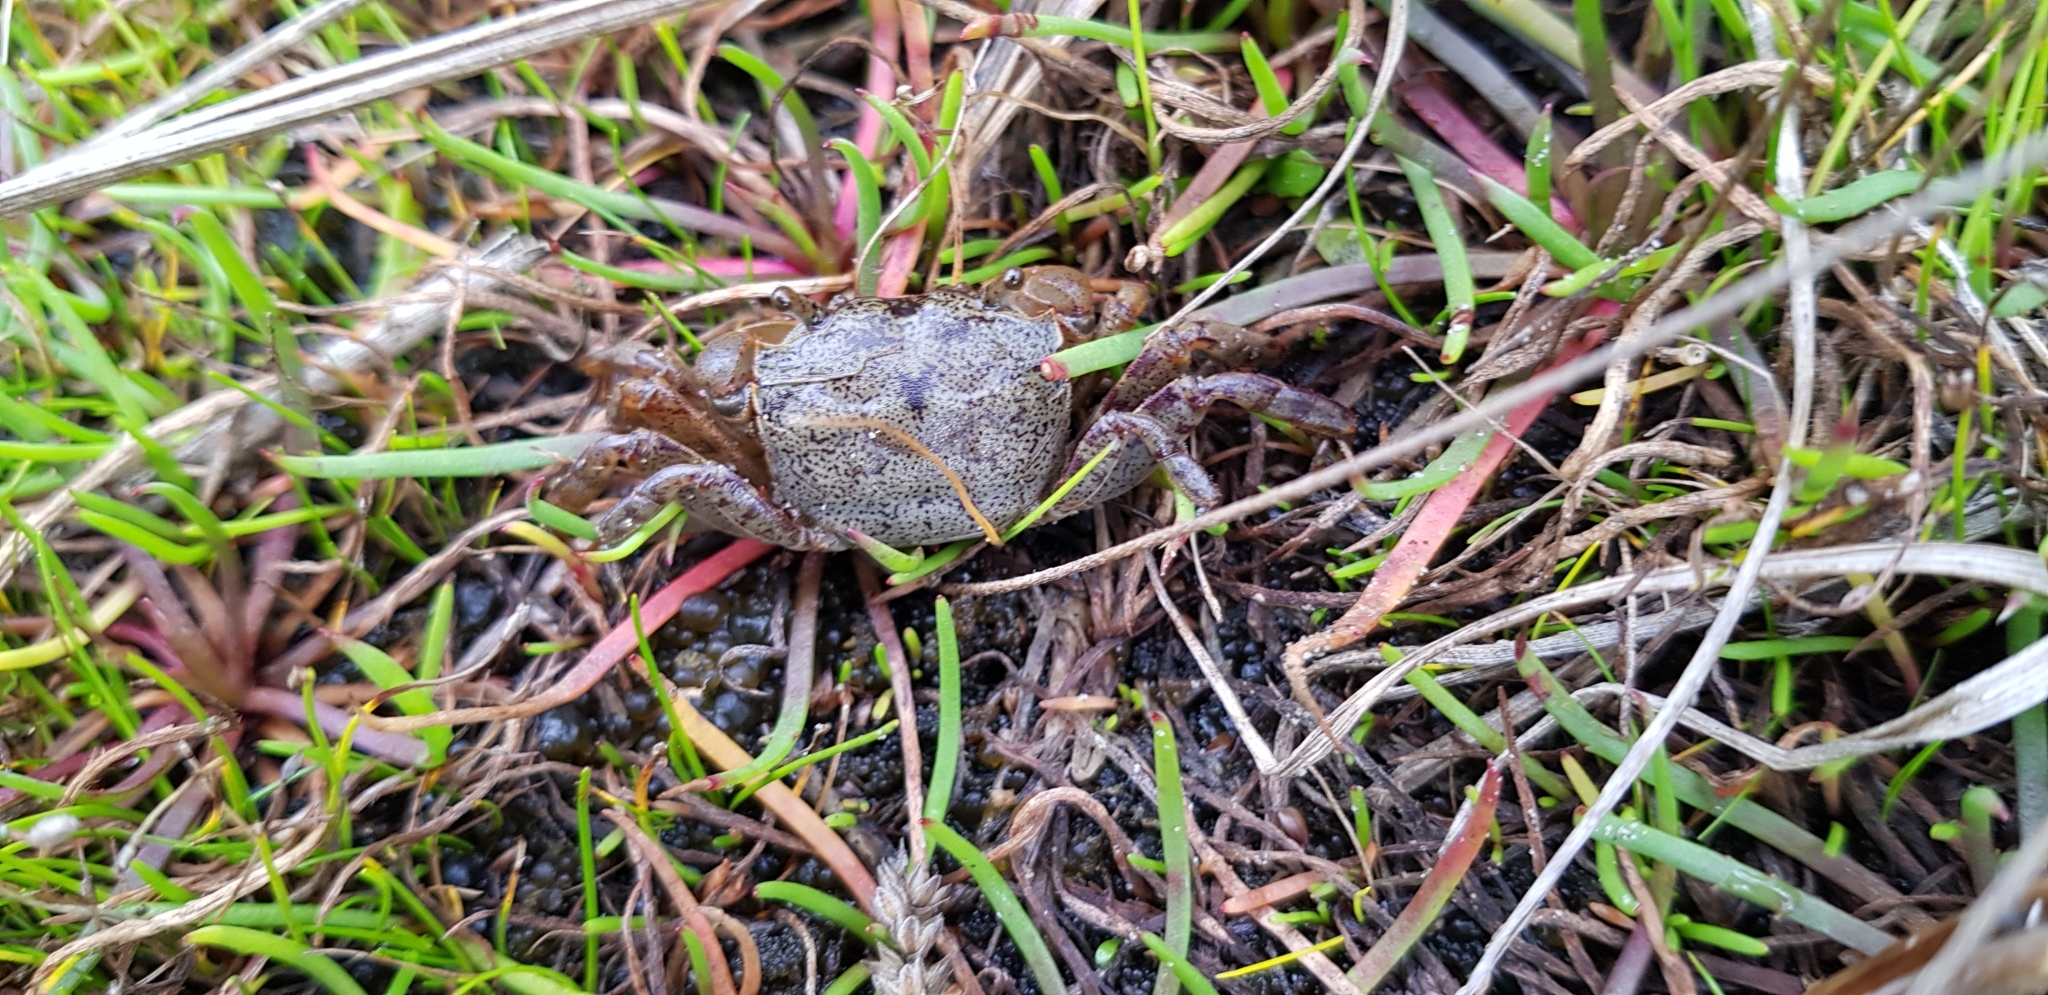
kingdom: Animalia
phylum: Arthropoda
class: Malacostraca
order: Decapoda
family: Varunidae
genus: Austrohelice
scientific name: Austrohelice crassa
